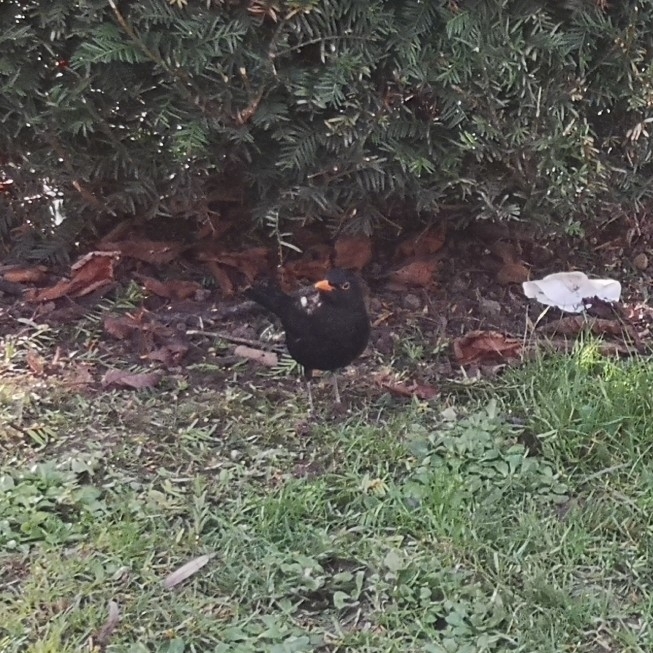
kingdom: Animalia
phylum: Chordata
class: Aves
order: Passeriformes
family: Turdidae
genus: Turdus
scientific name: Turdus merula
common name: Common blackbird
